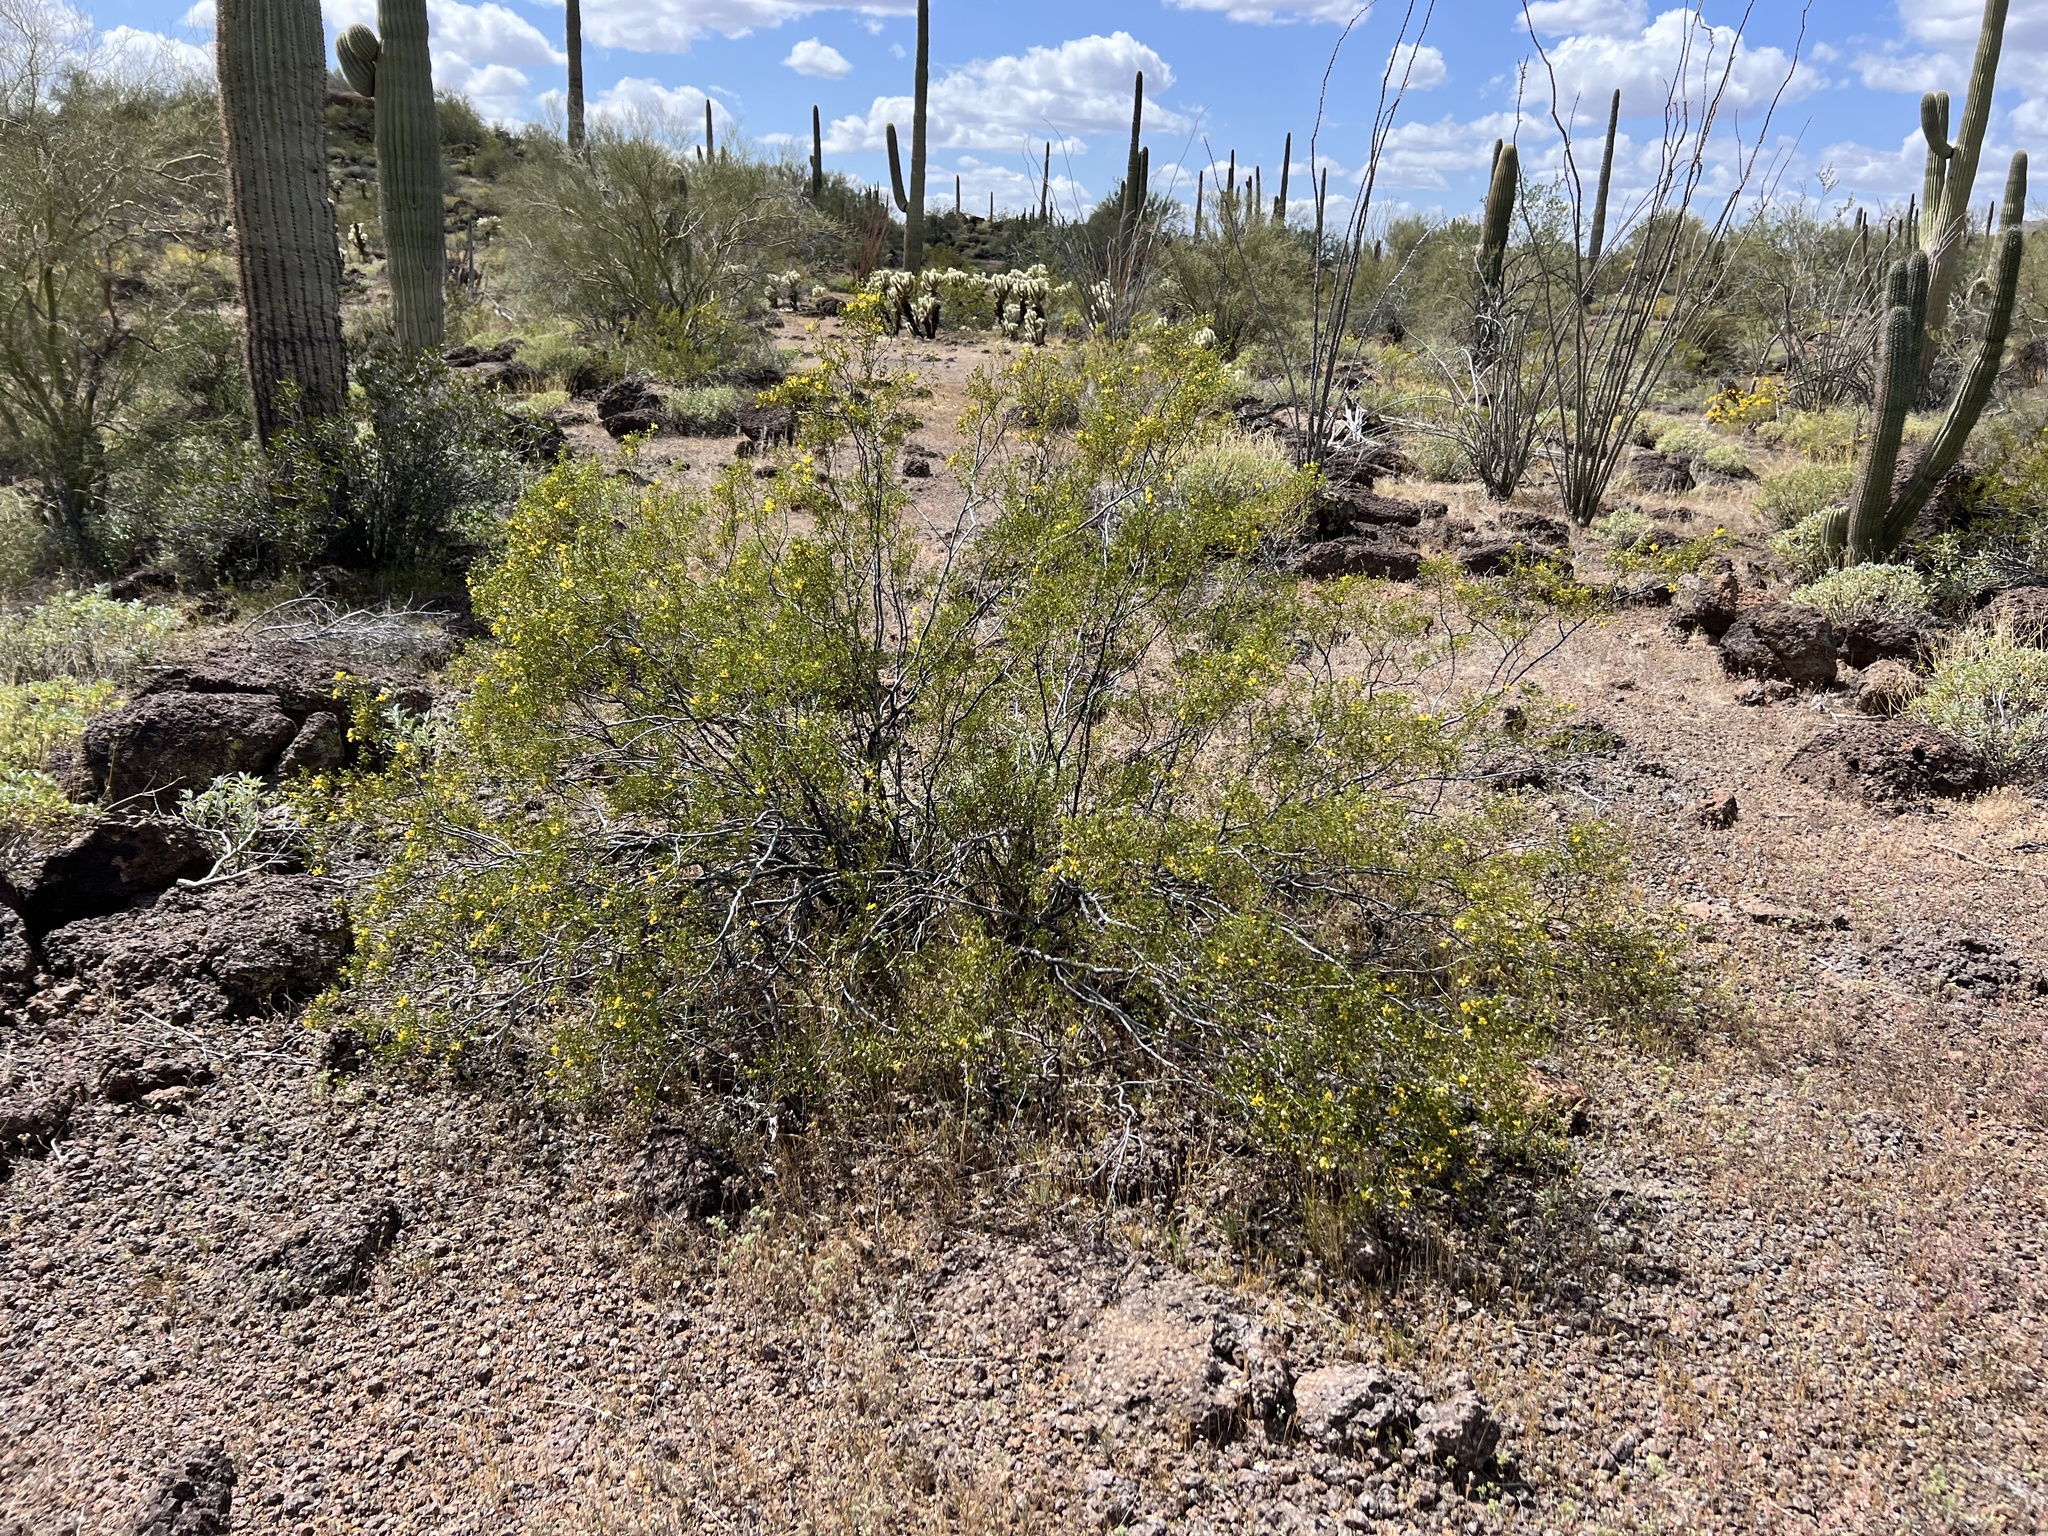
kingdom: Plantae
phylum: Tracheophyta
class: Magnoliopsida
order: Zygophyllales
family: Zygophyllaceae
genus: Larrea
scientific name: Larrea tridentata
